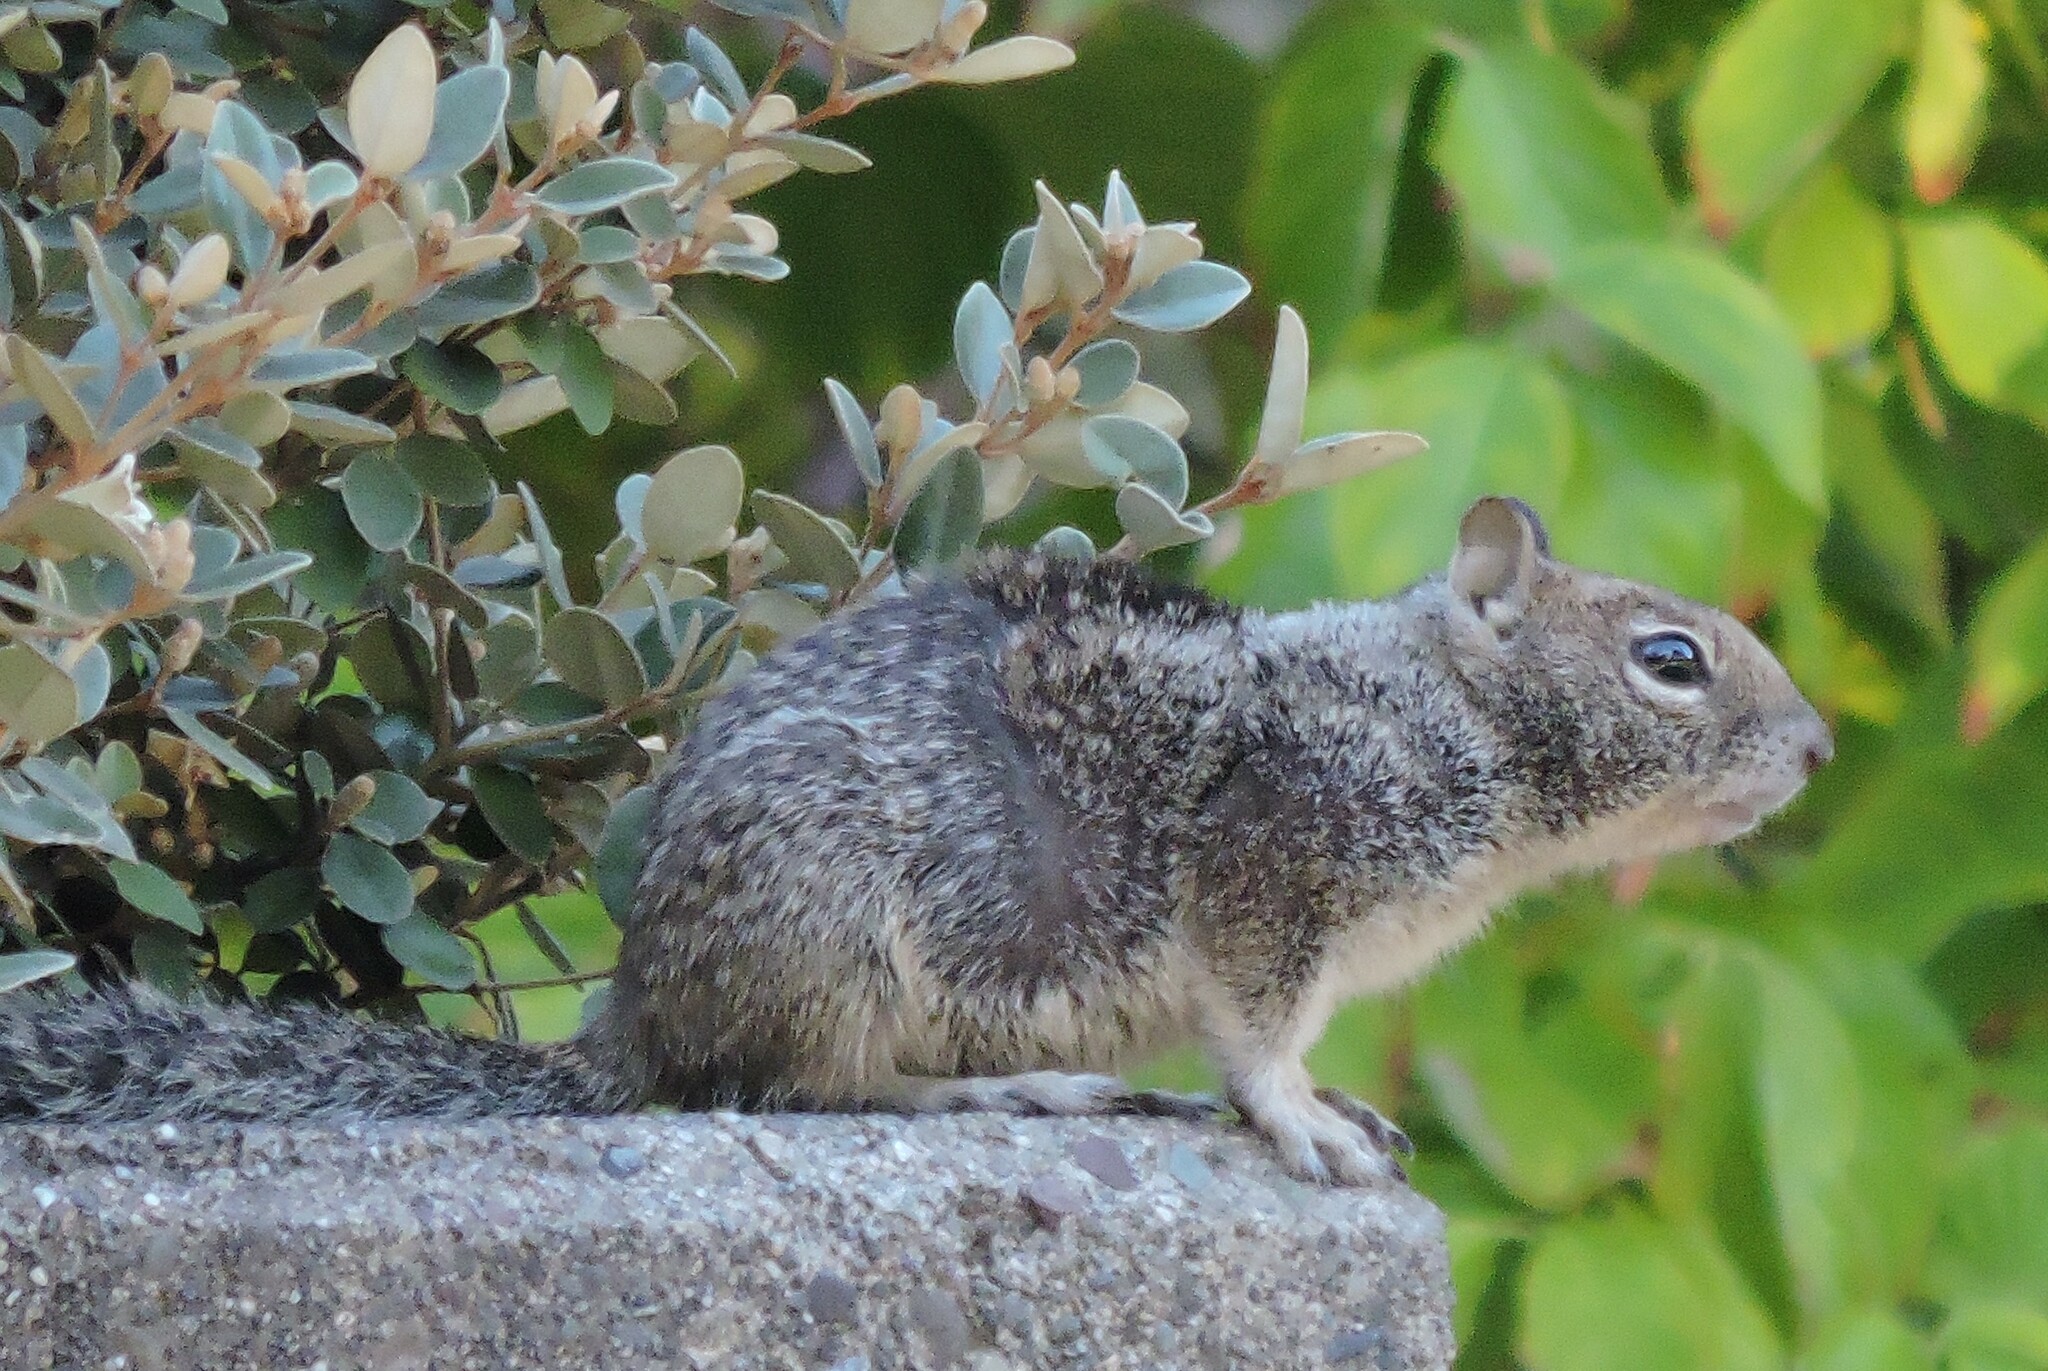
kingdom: Animalia
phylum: Chordata
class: Mammalia
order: Rodentia
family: Sciuridae
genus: Otospermophilus
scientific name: Otospermophilus beecheyi
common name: California ground squirrel
